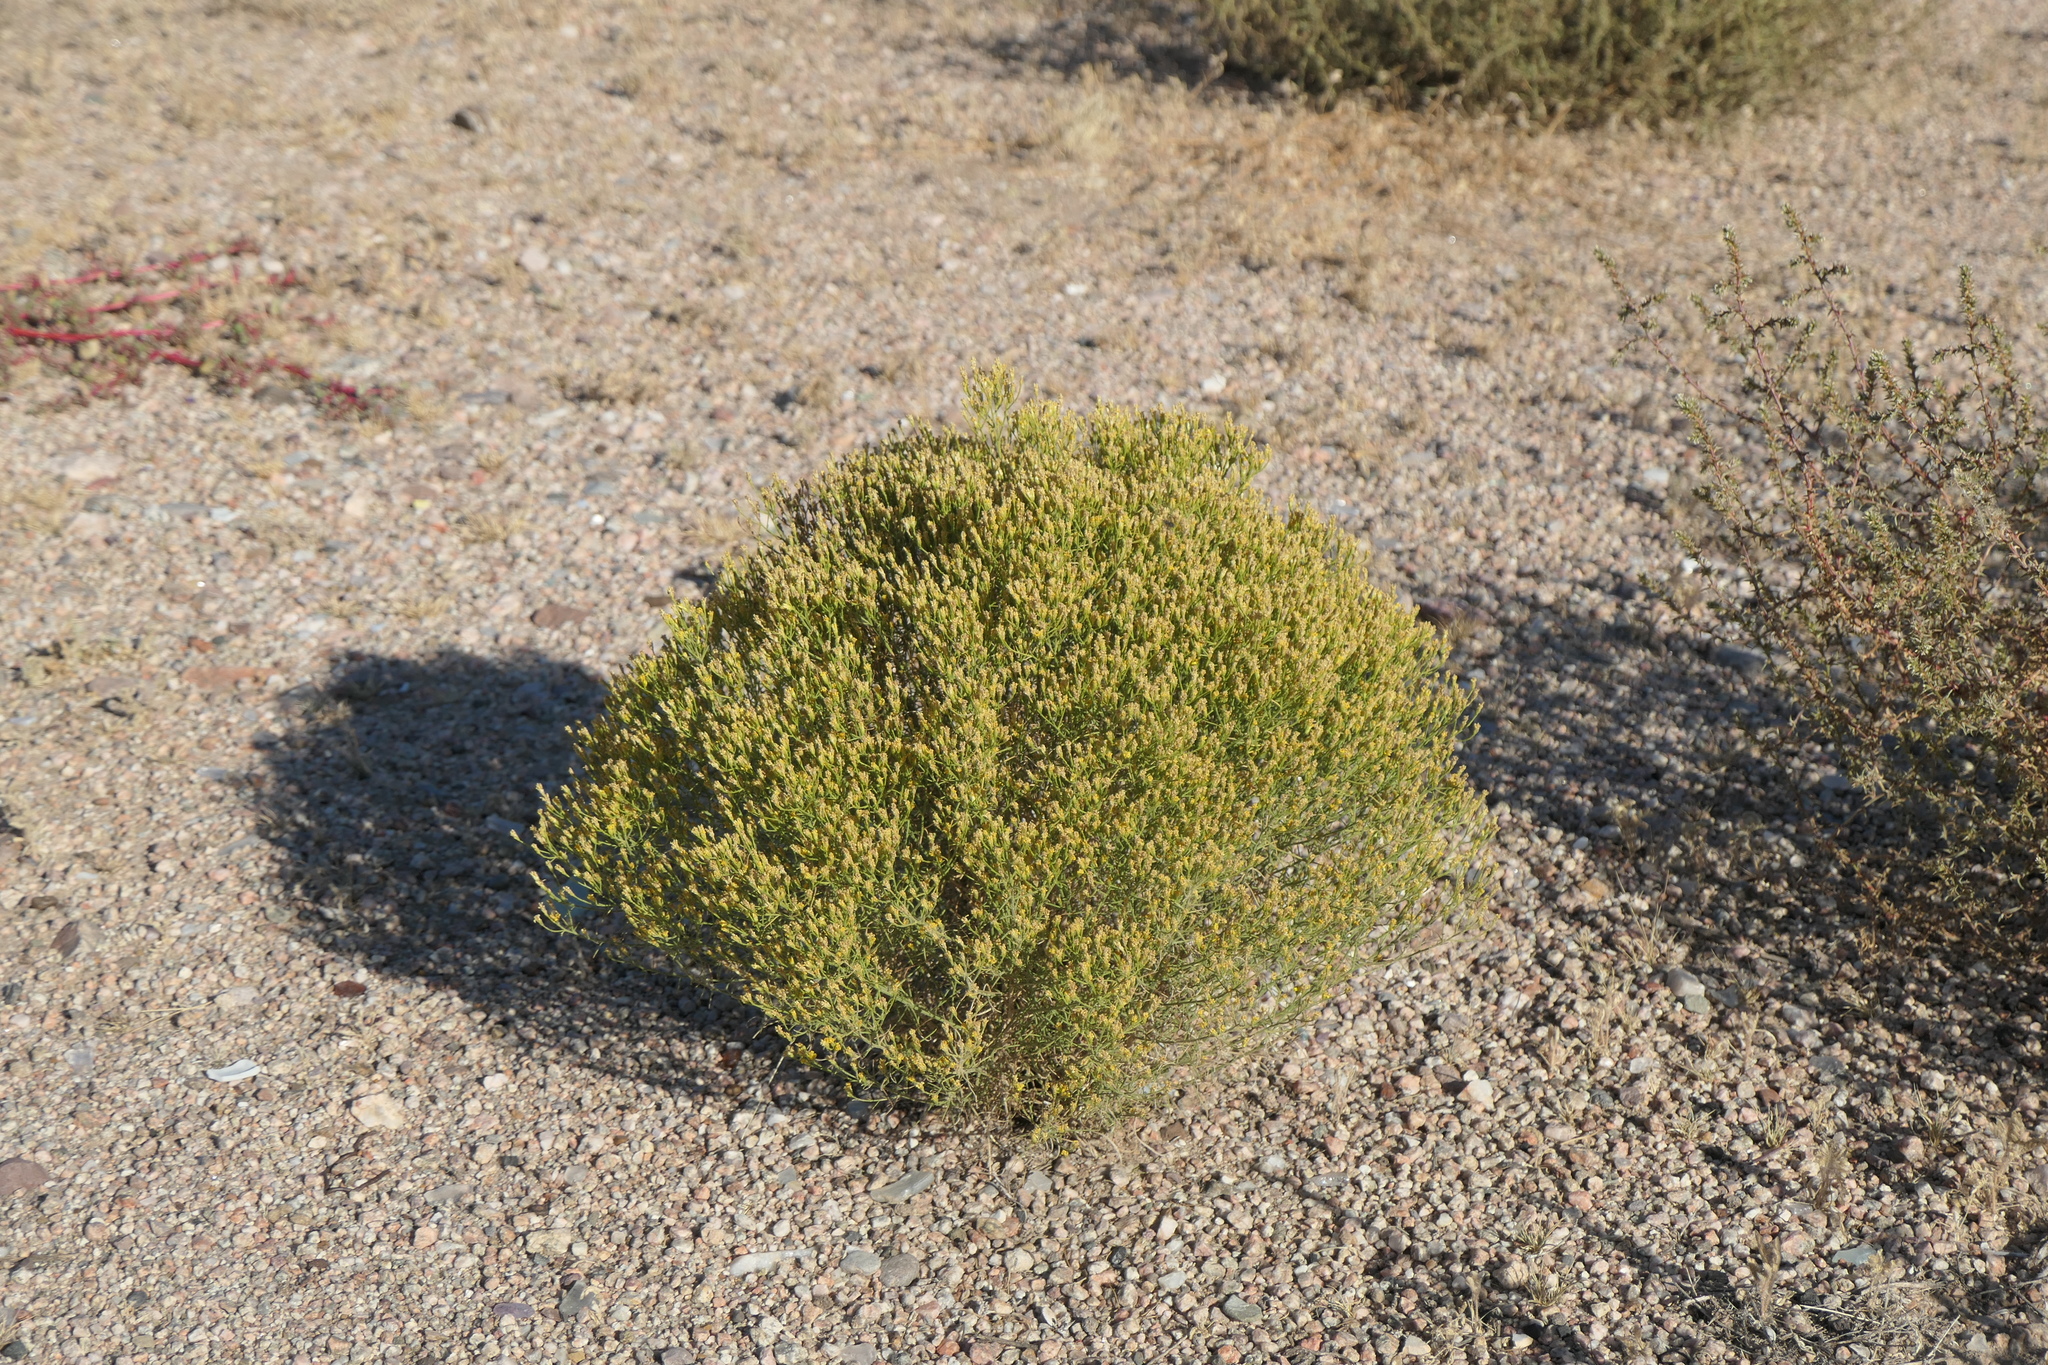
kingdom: Plantae
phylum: Tracheophyta
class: Magnoliopsida
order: Asterales
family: Asteraceae
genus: Gutierrezia
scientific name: Gutierrezia sarothrae
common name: Broom snakeweed
